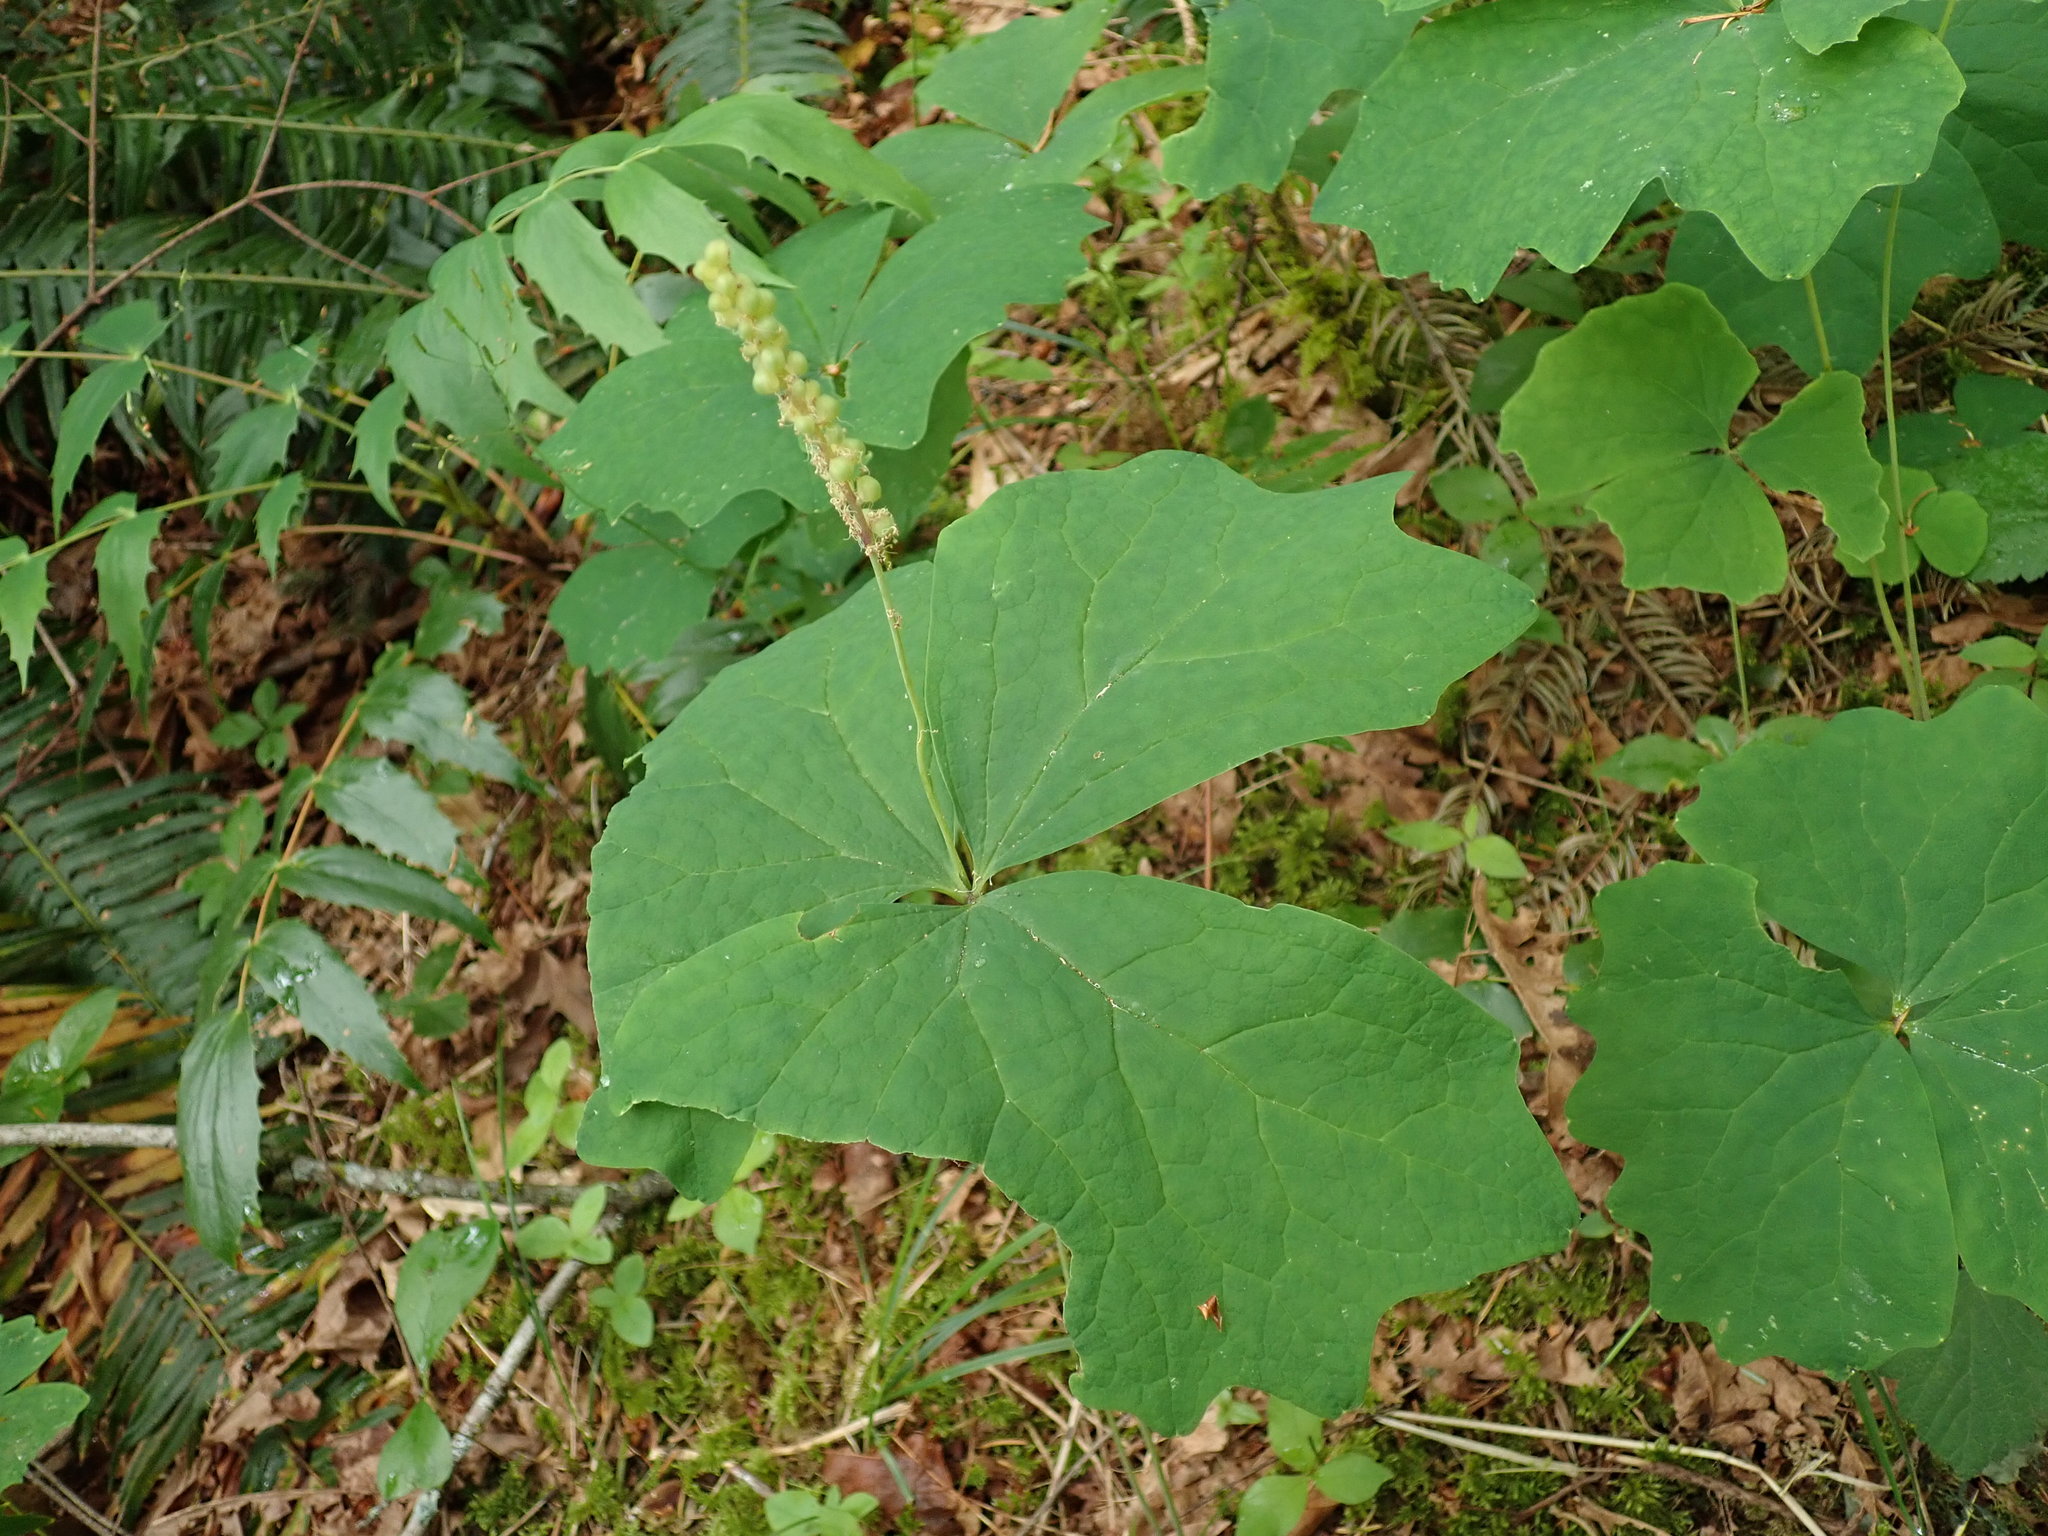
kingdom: Plantae
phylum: Tracheophyta
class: Magnoliopsida
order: Ranunculales
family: Berberidaceae
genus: Achlys
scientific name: Achlys triphylla
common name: Vanilla-leaf
